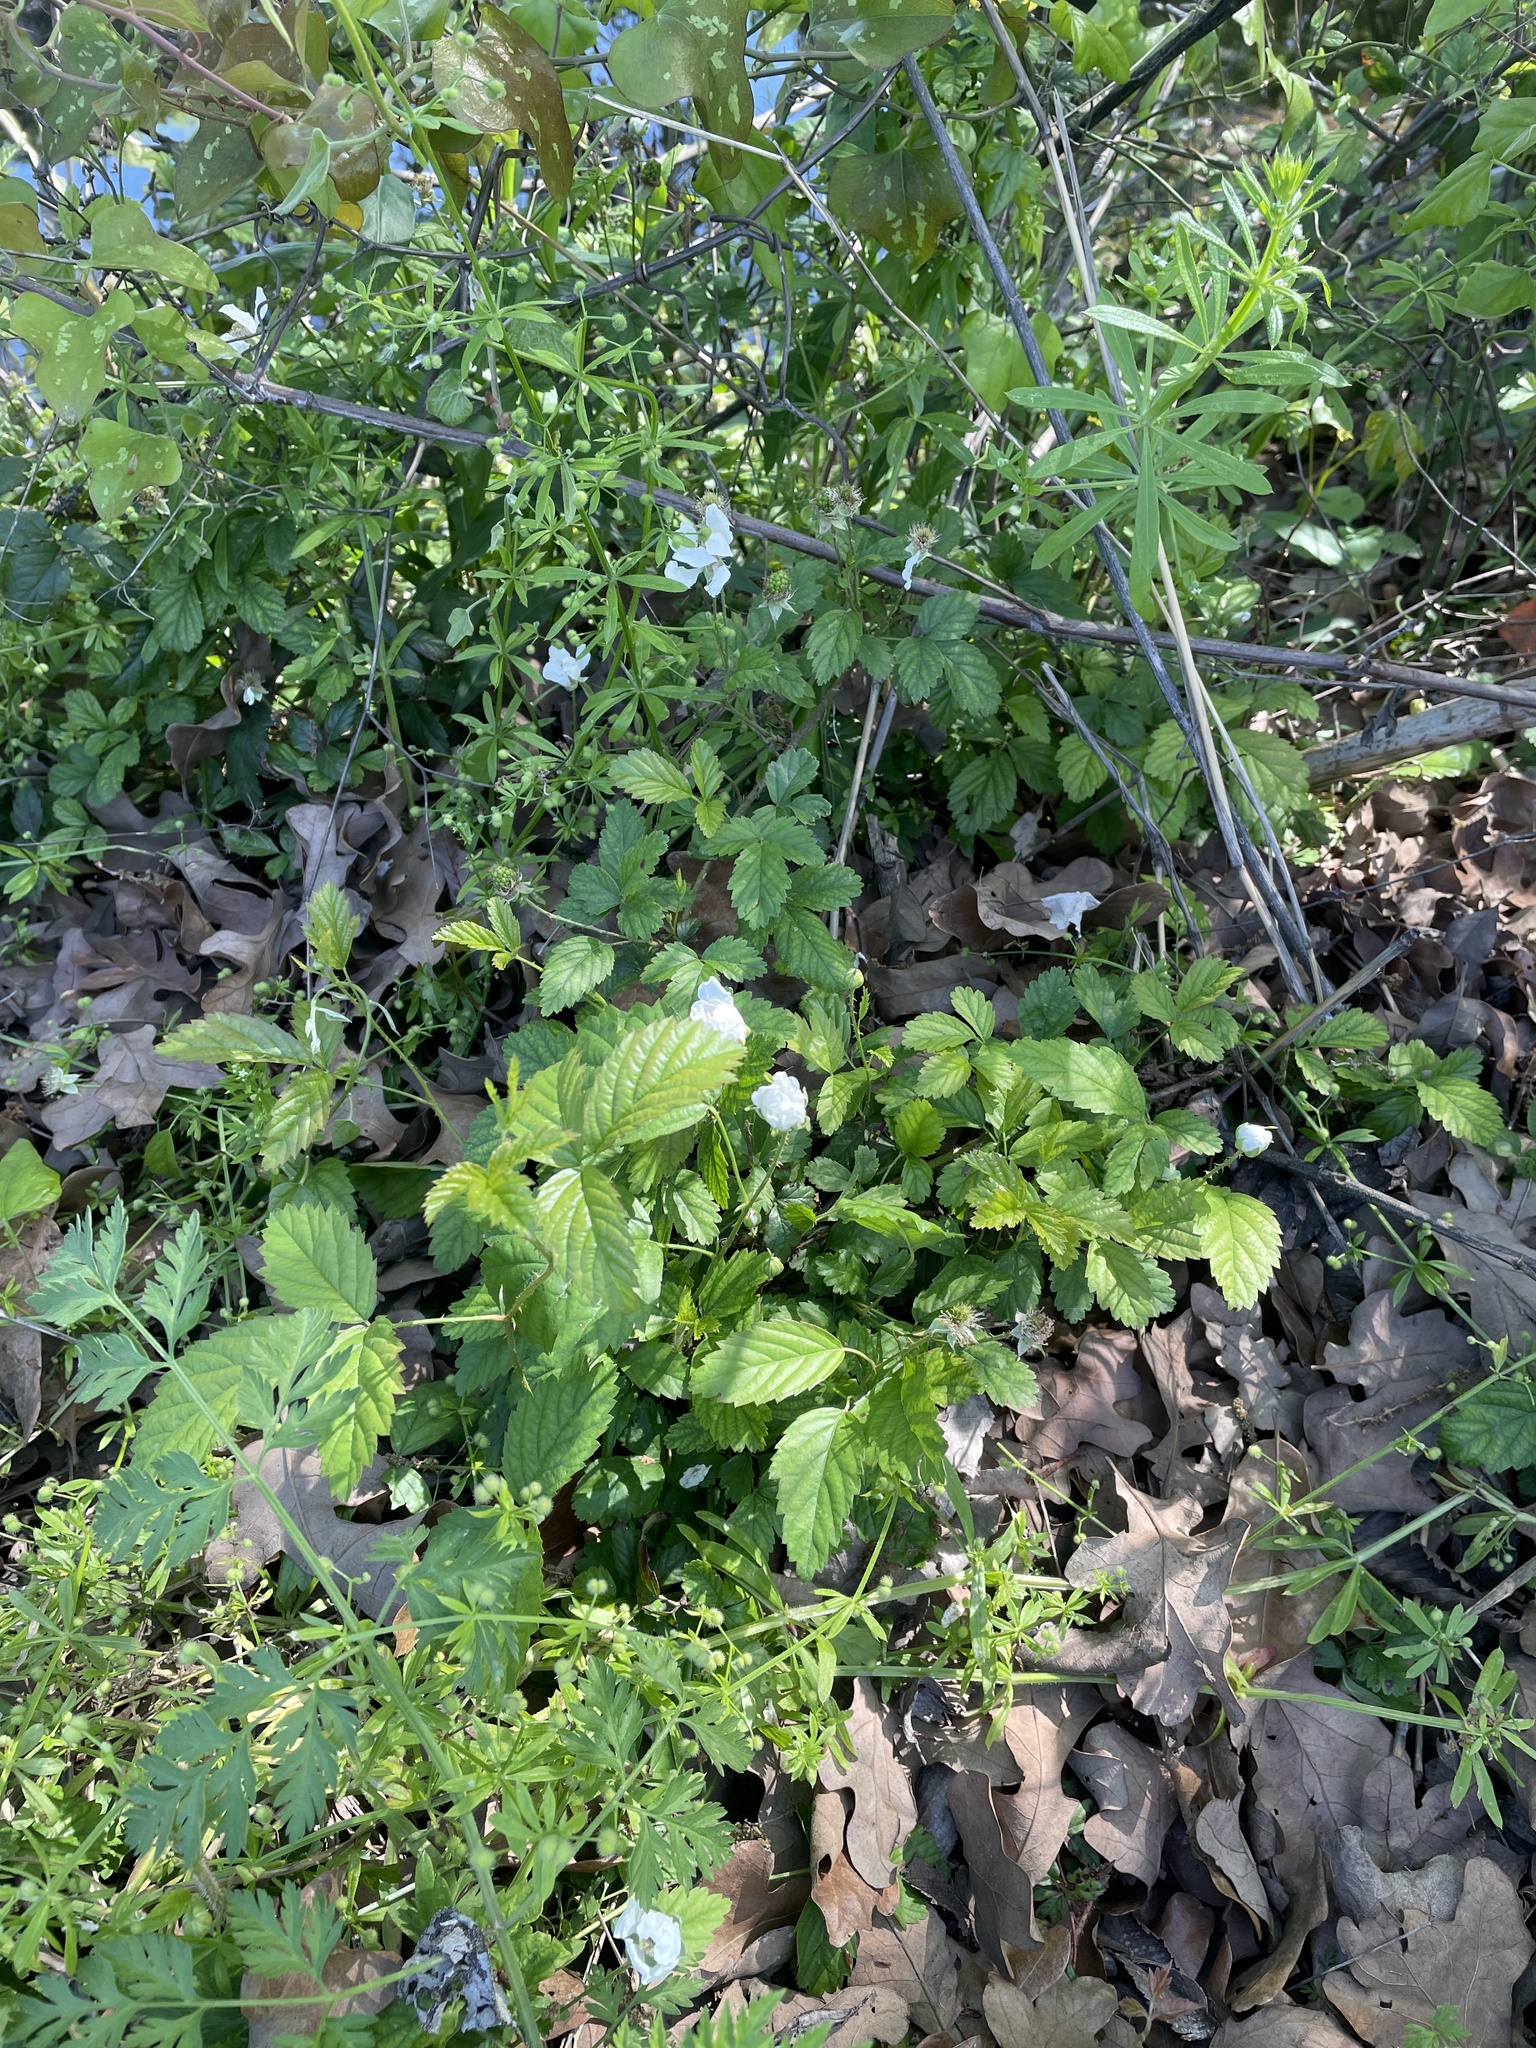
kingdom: Plantae
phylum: Tracheophyta
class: Magnoliopsida
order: Rosales
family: Rosaceae
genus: Rubus
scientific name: Rubus trivialis
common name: Southern dewberry
